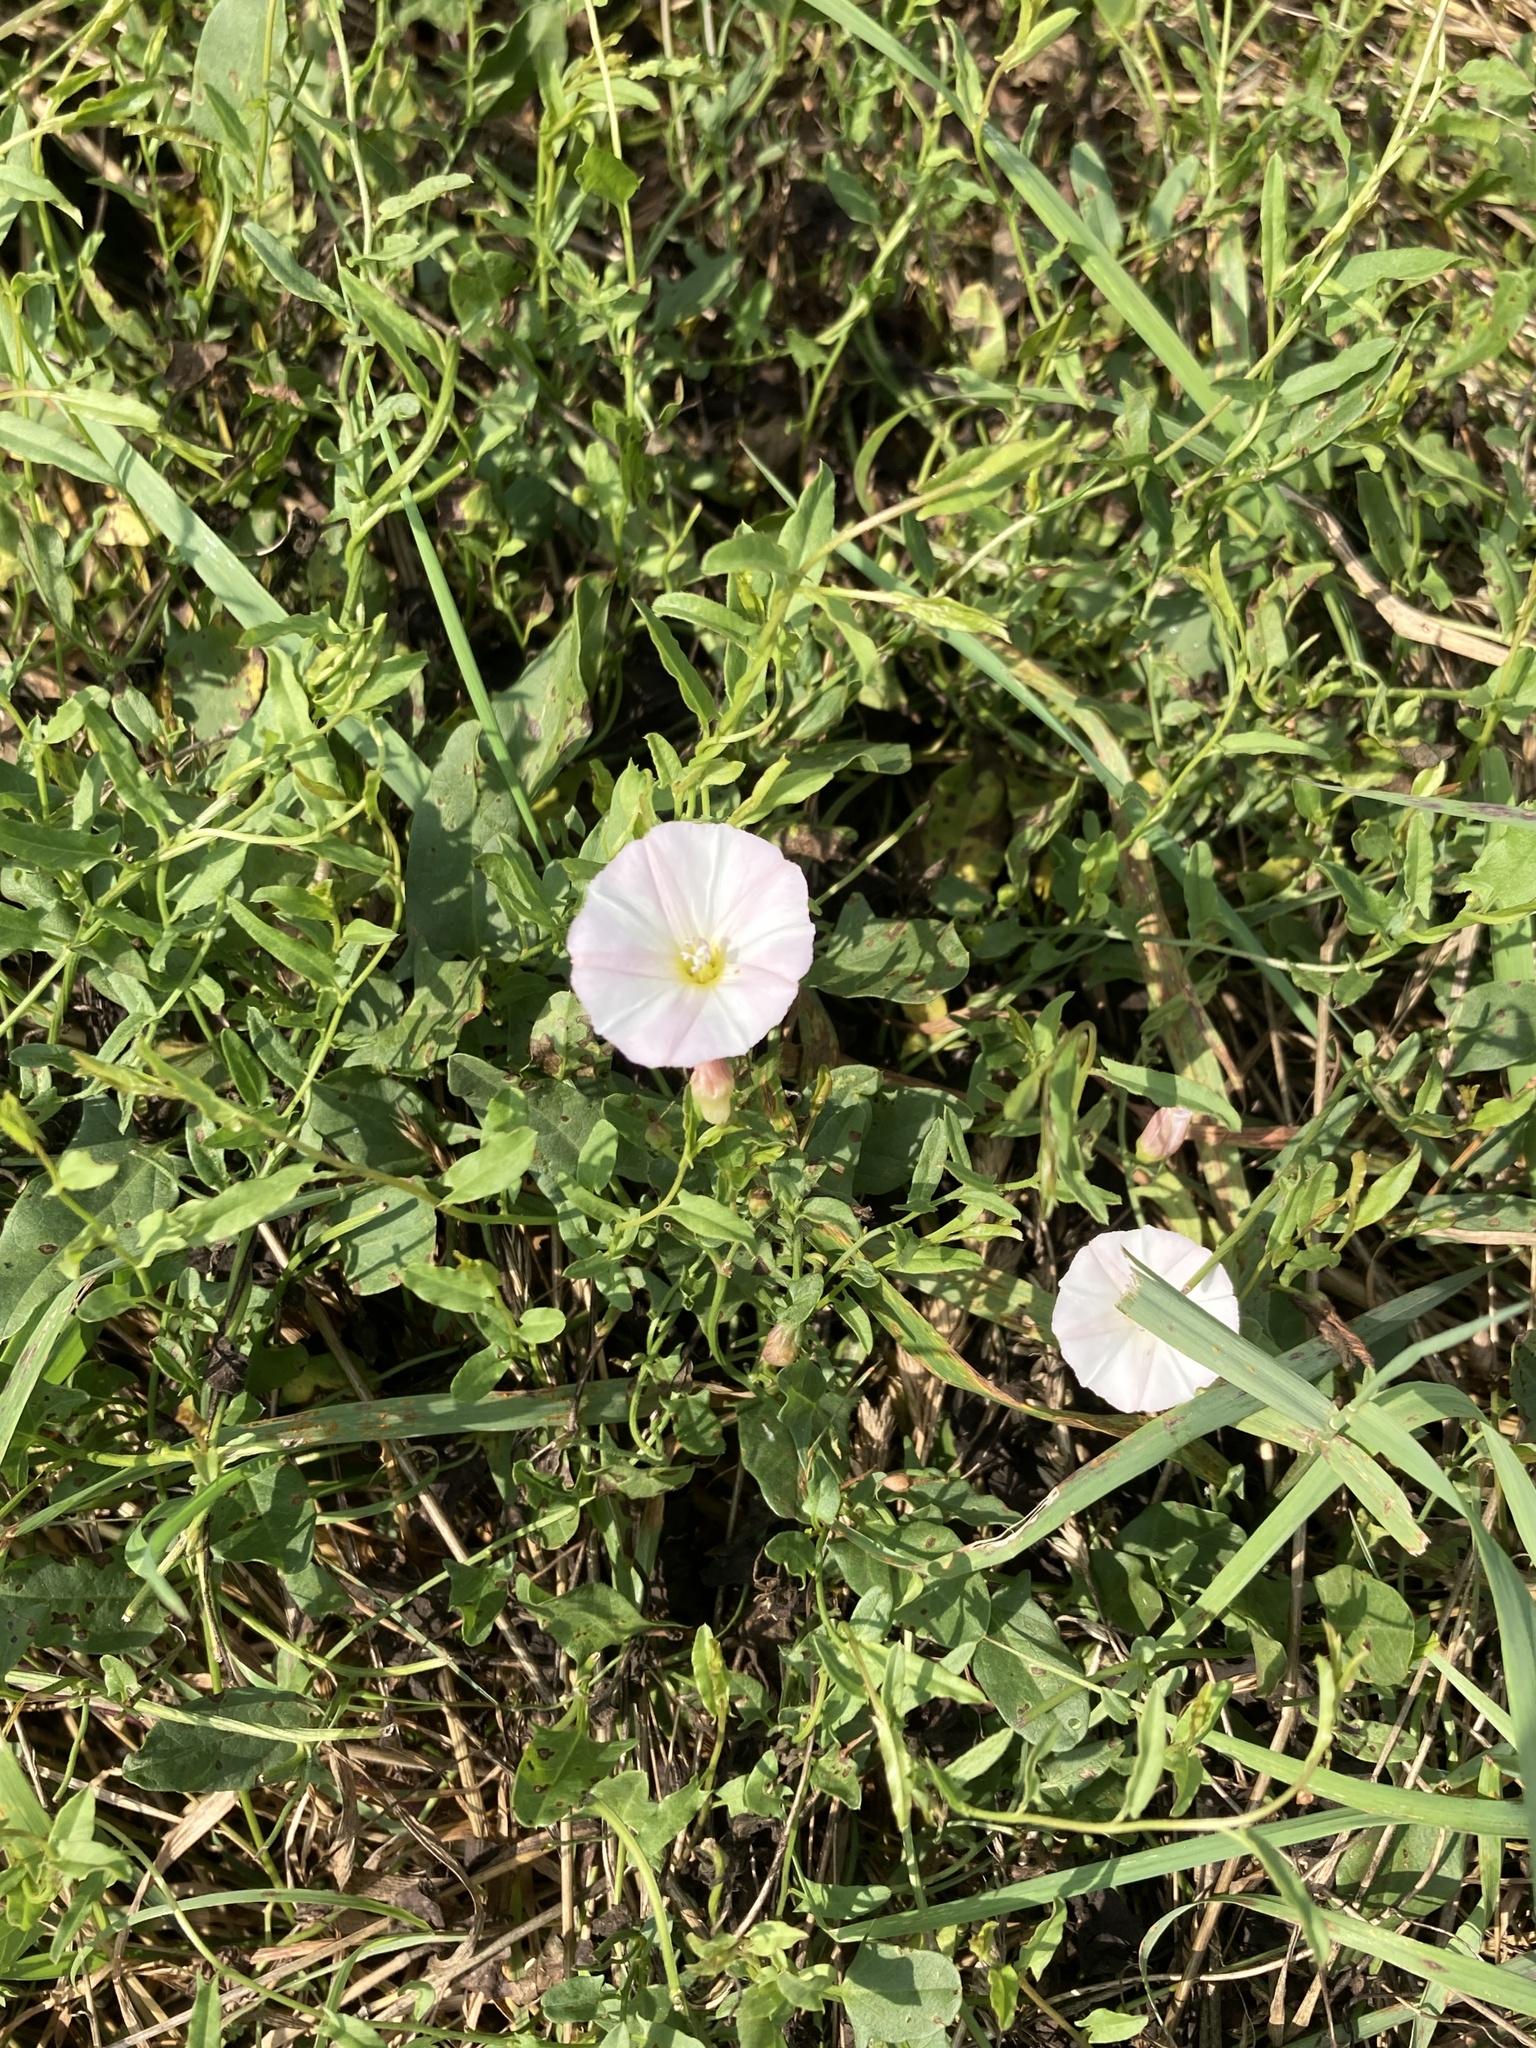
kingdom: Plantae
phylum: Tracheophyta
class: Magnoliopsida
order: Solanales
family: Convolvulaceae
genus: Convolvulus
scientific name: Convolvulus arvensis
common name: Field bindweed
